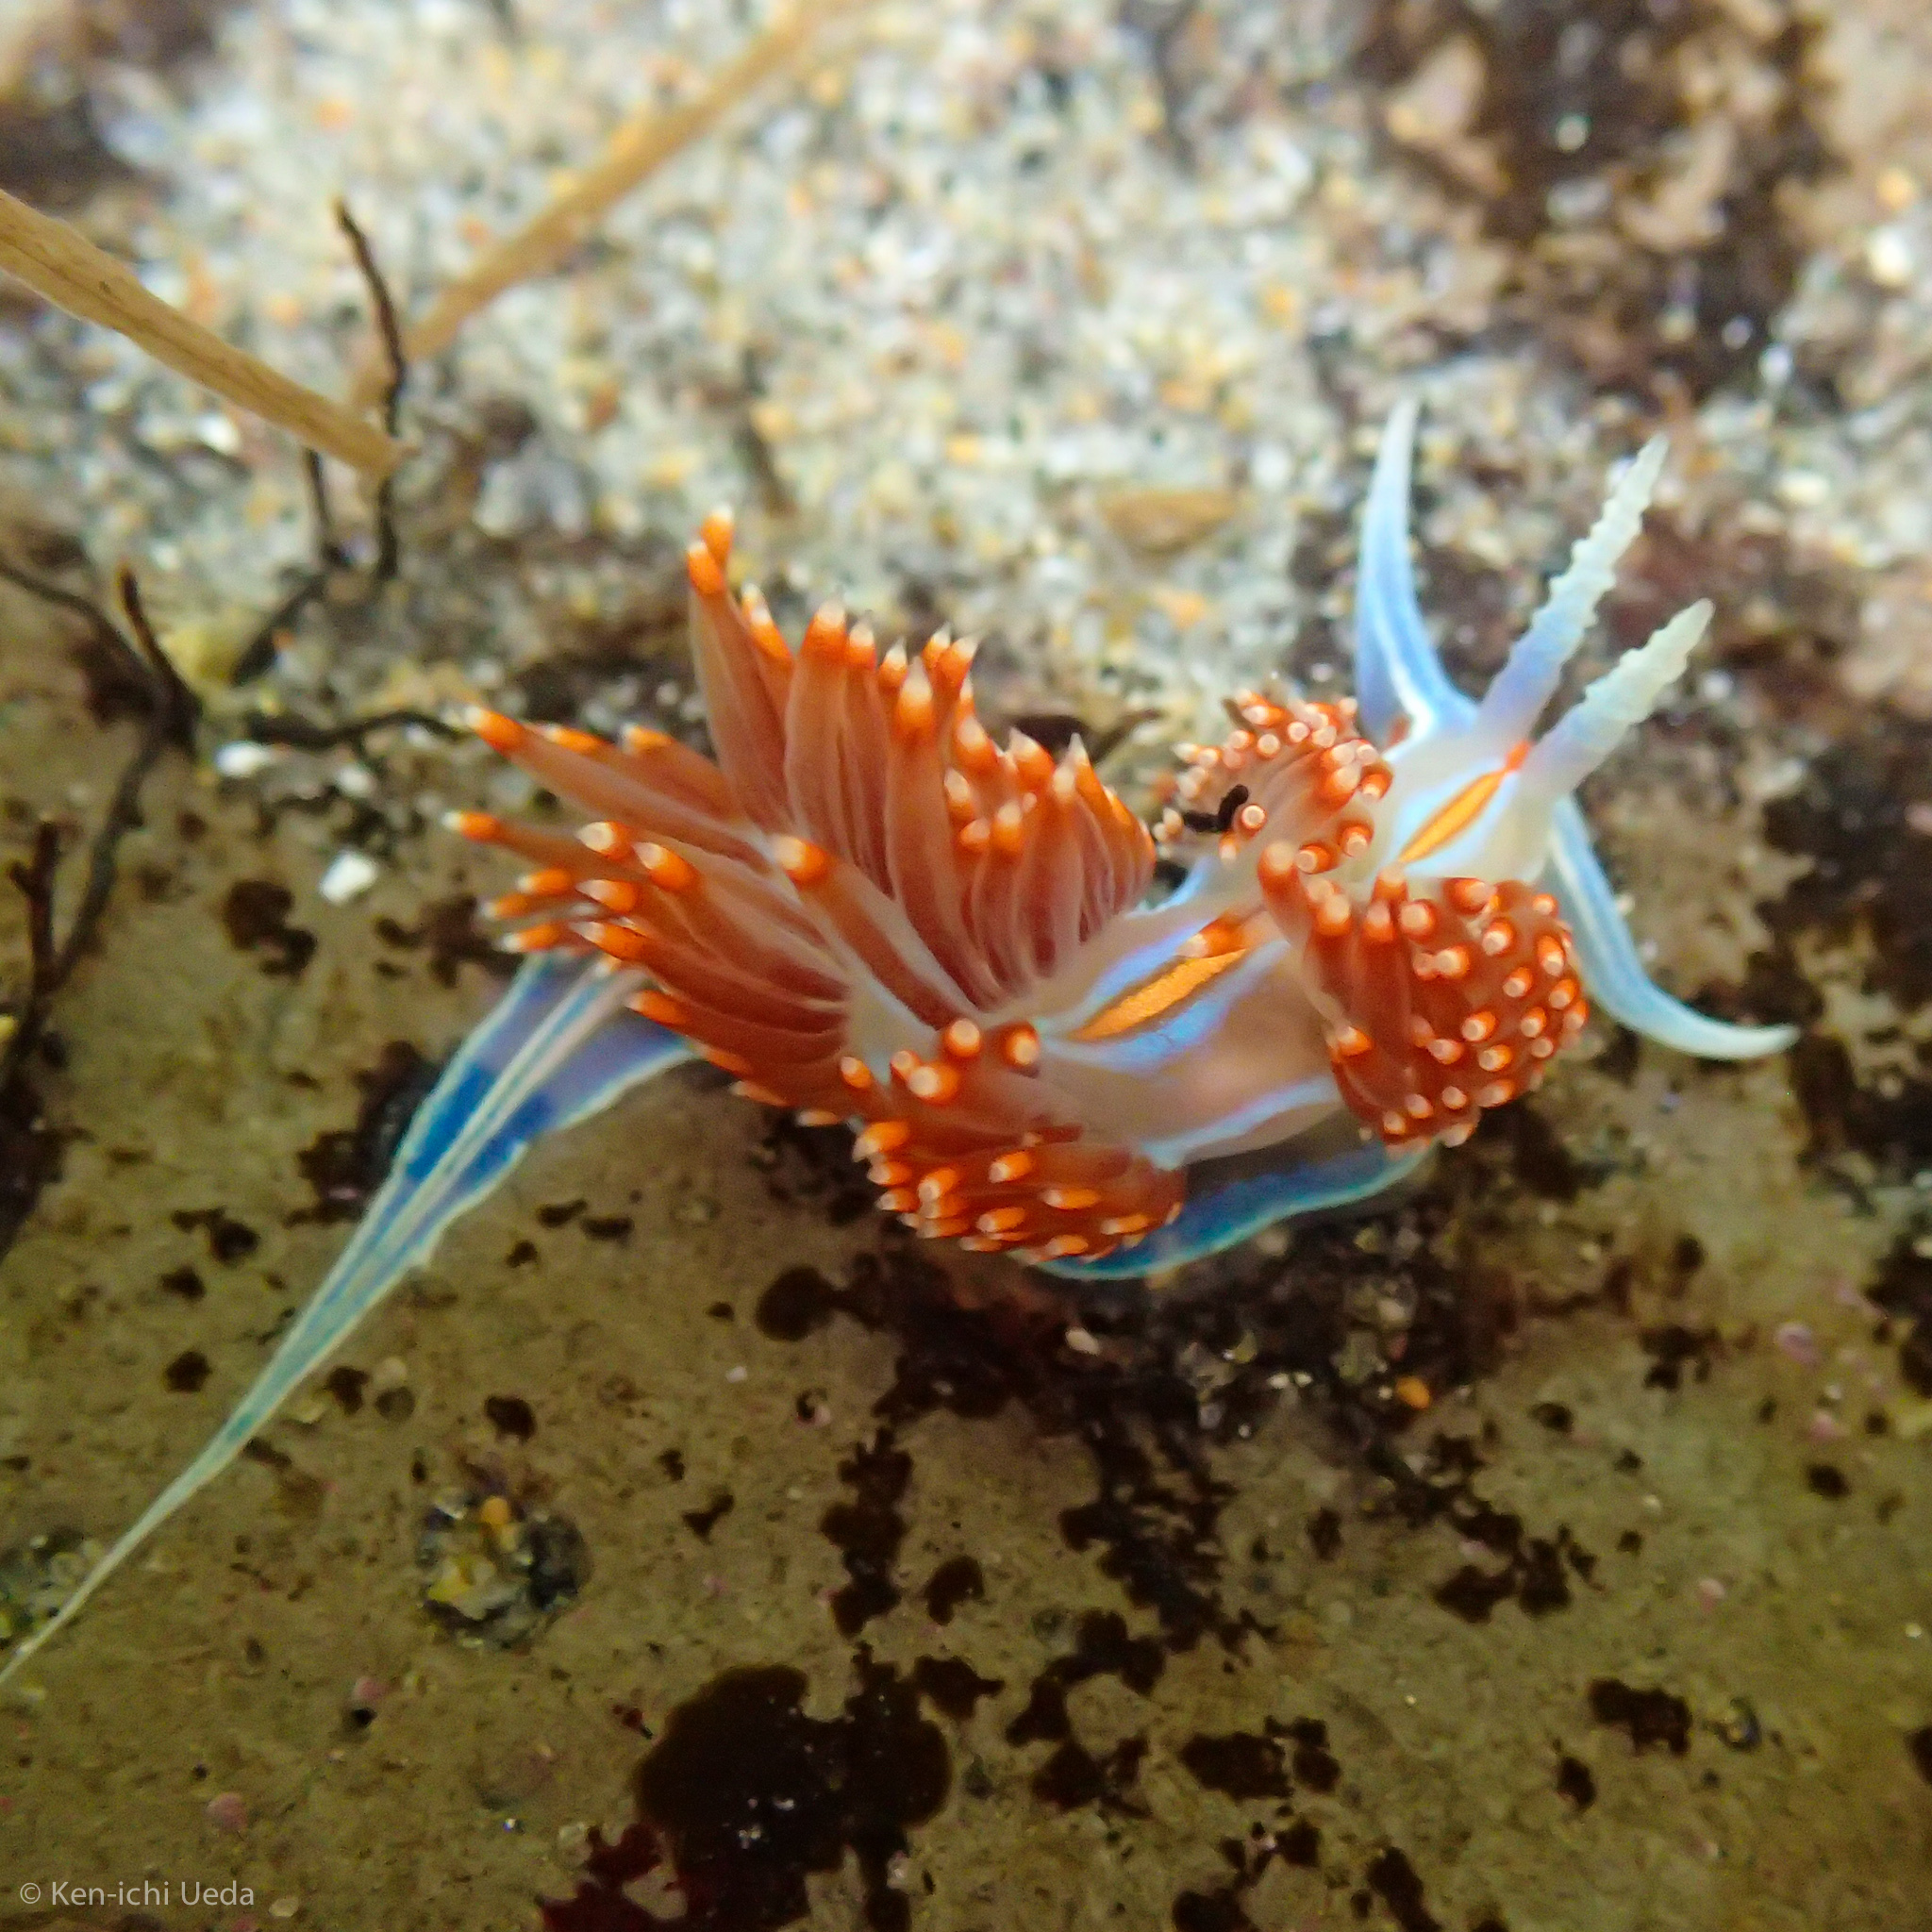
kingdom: Animalia
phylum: Mollusca
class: Gastropoda
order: Nudibranchia
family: Myrrhinidae
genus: Hermissenda
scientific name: Hermissenda opalescens
